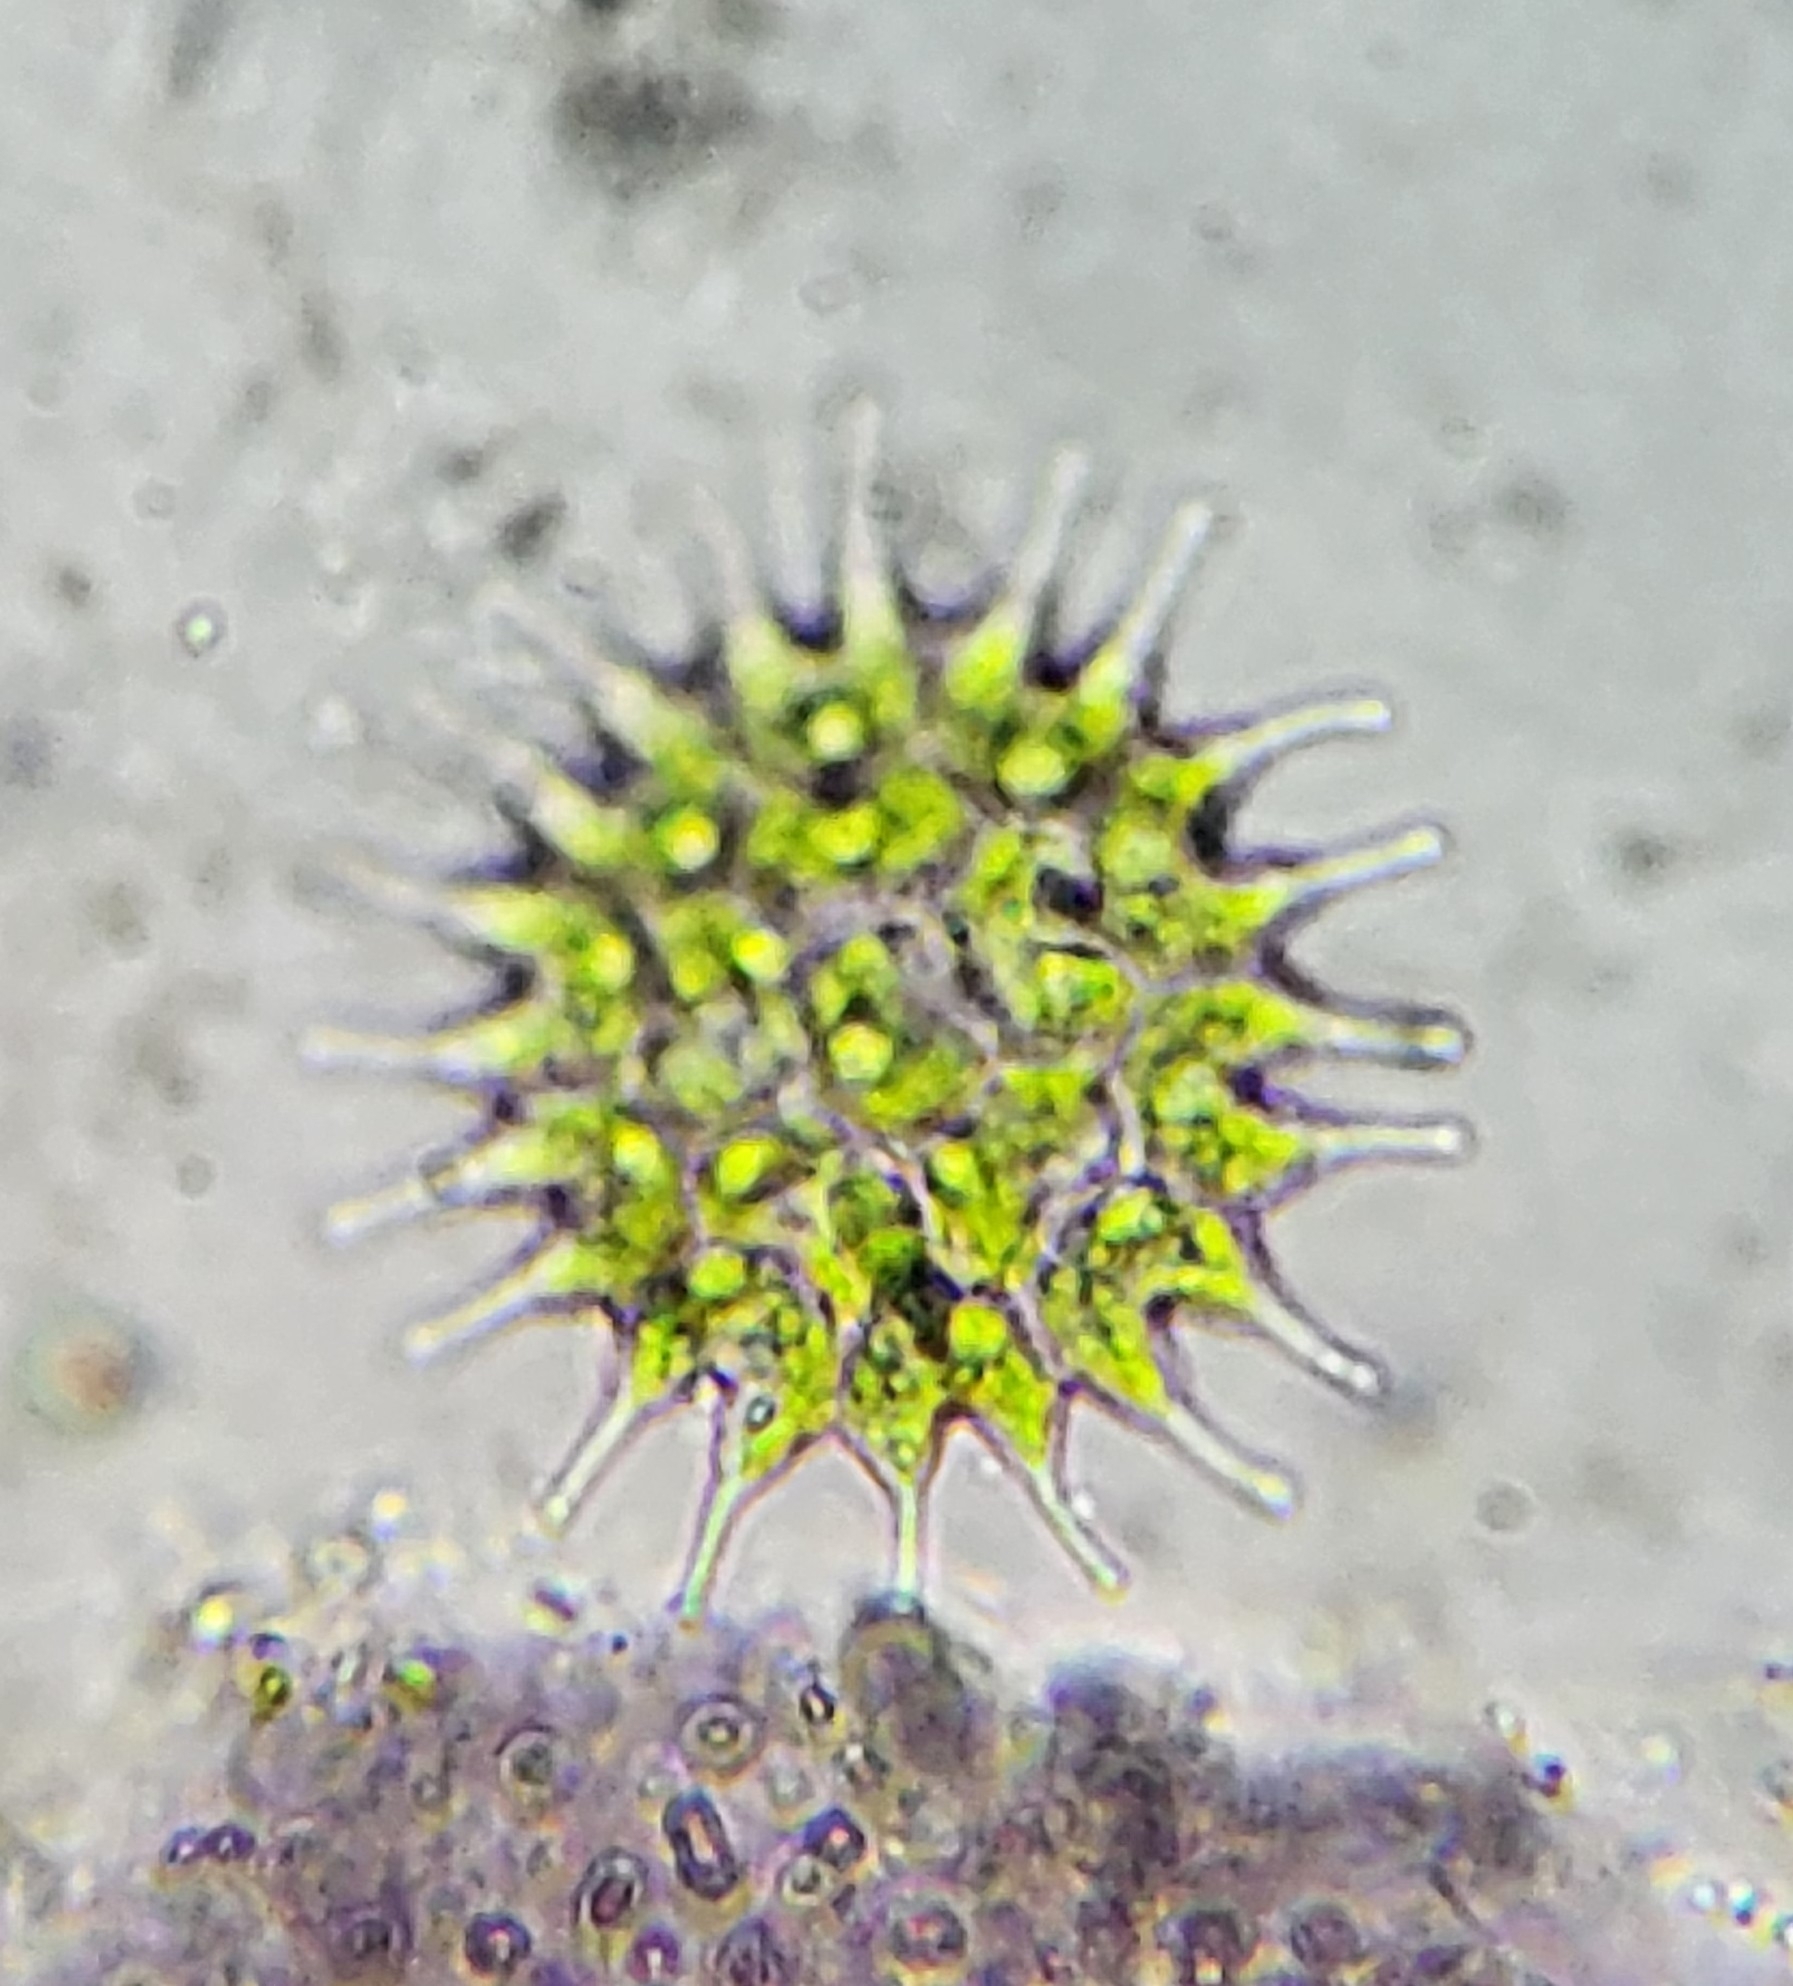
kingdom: Plantae
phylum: Chlorophyta
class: Chlorophyceae
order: Sphaeropleales
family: Hydrodictyaceae
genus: Pseudopediastrum
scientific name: Pseudopediastrum boryanum
